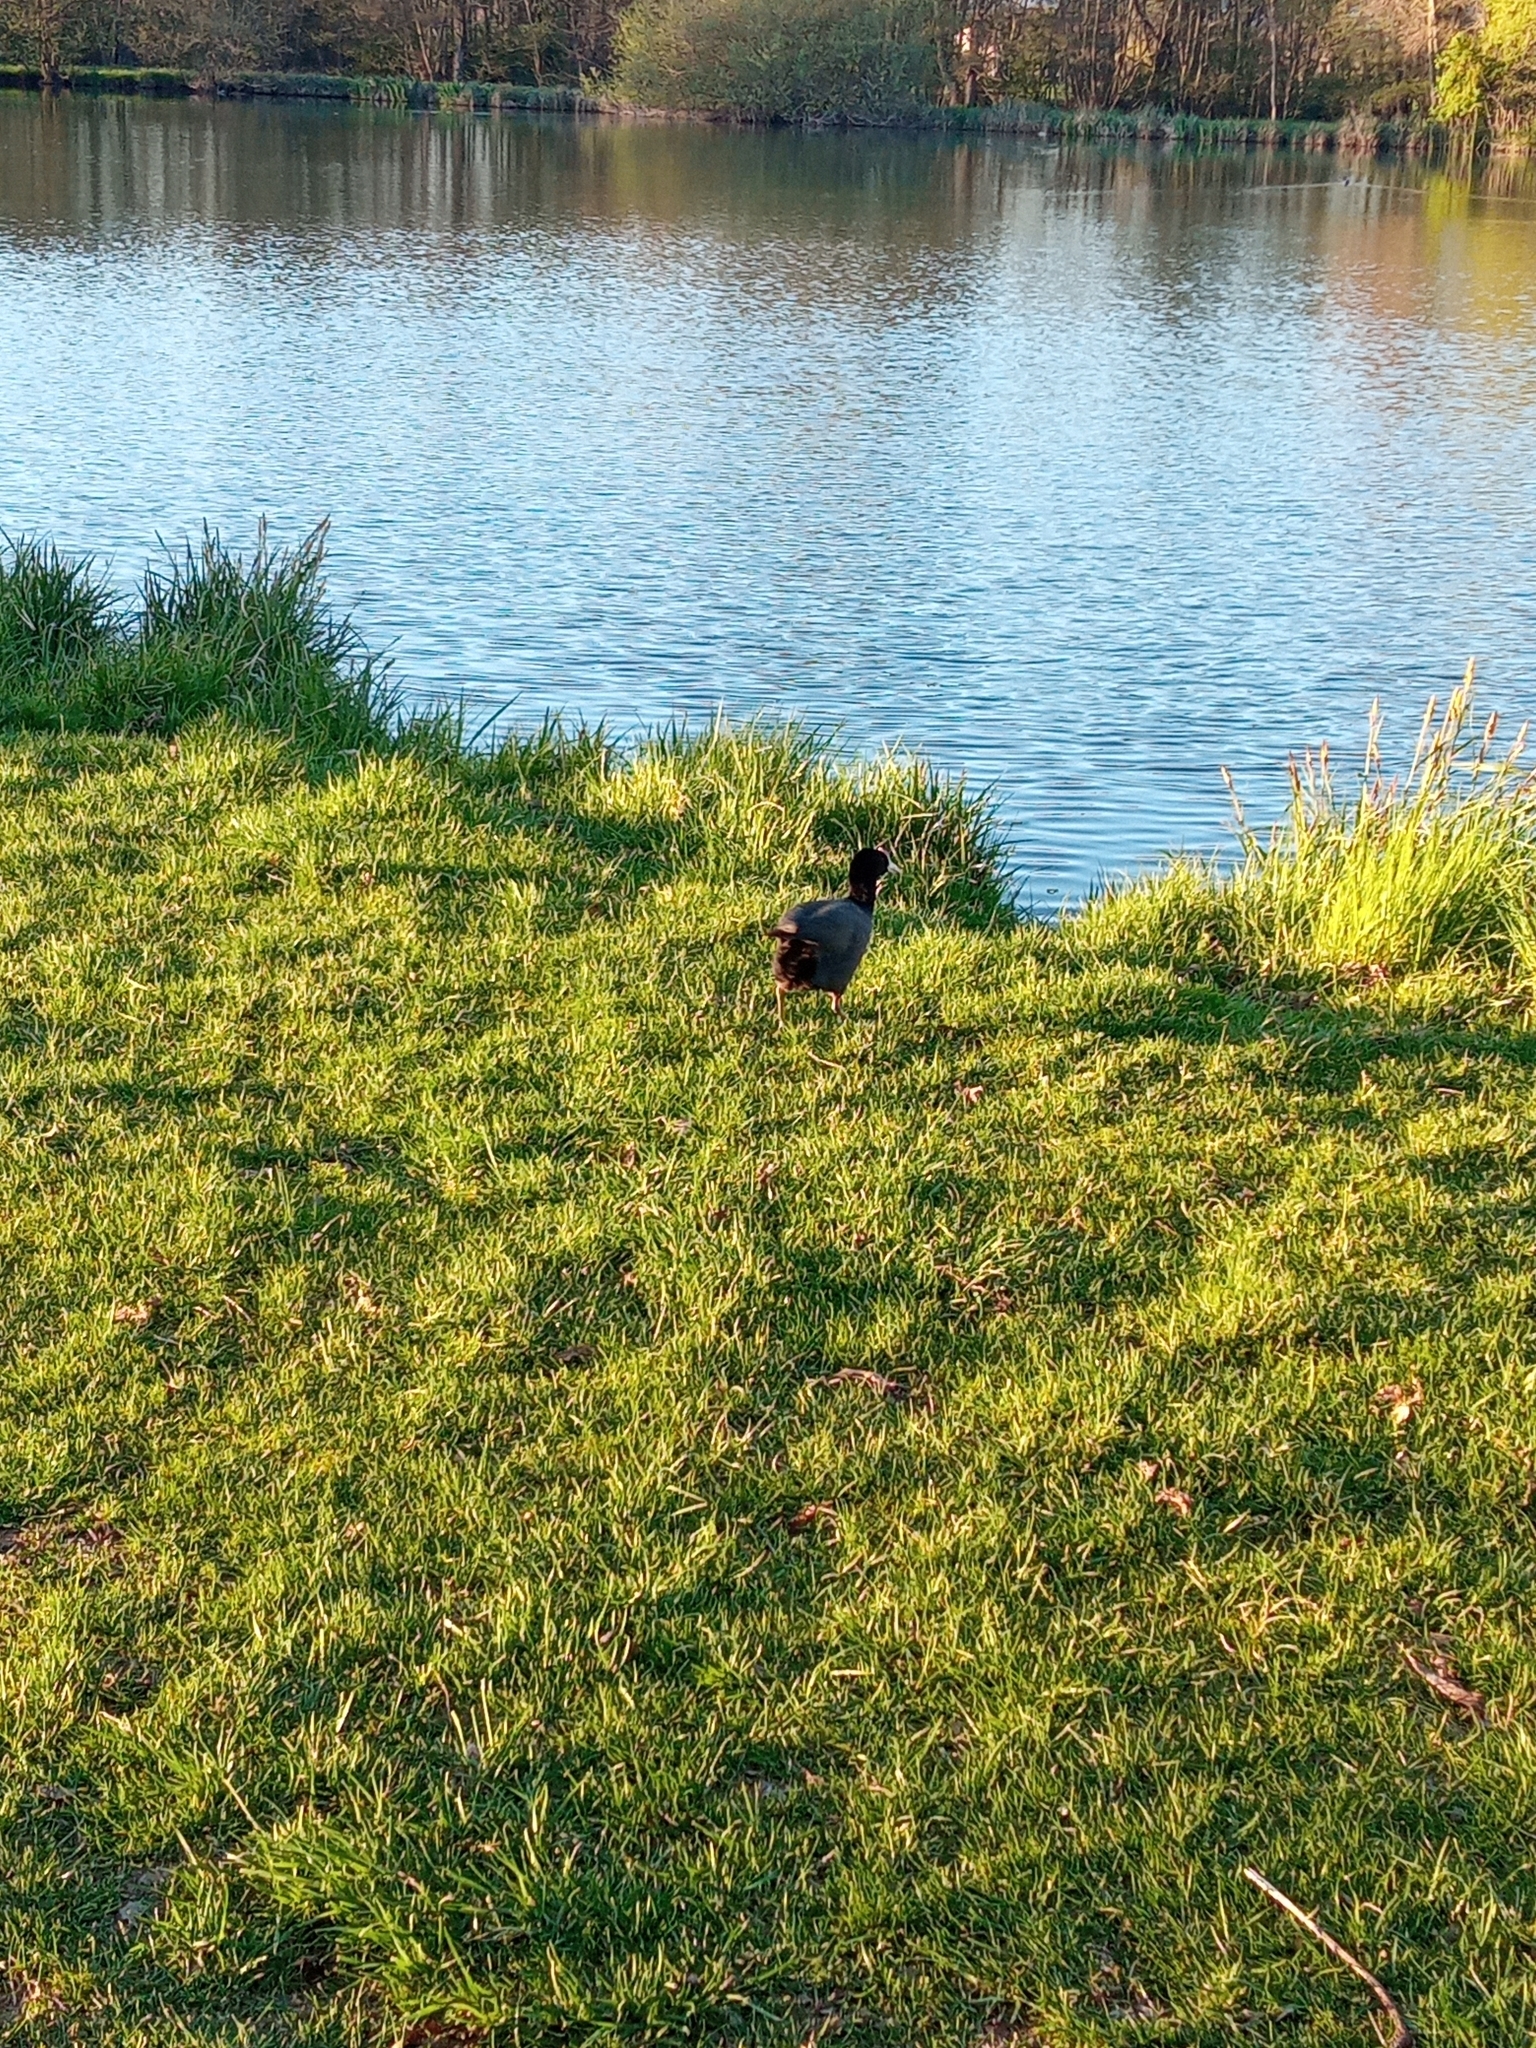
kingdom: Animalia
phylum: Chordata
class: Aves
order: Gruiformes
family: Rallidae
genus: Fulica
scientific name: Fulica atra
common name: Eurasian coot
